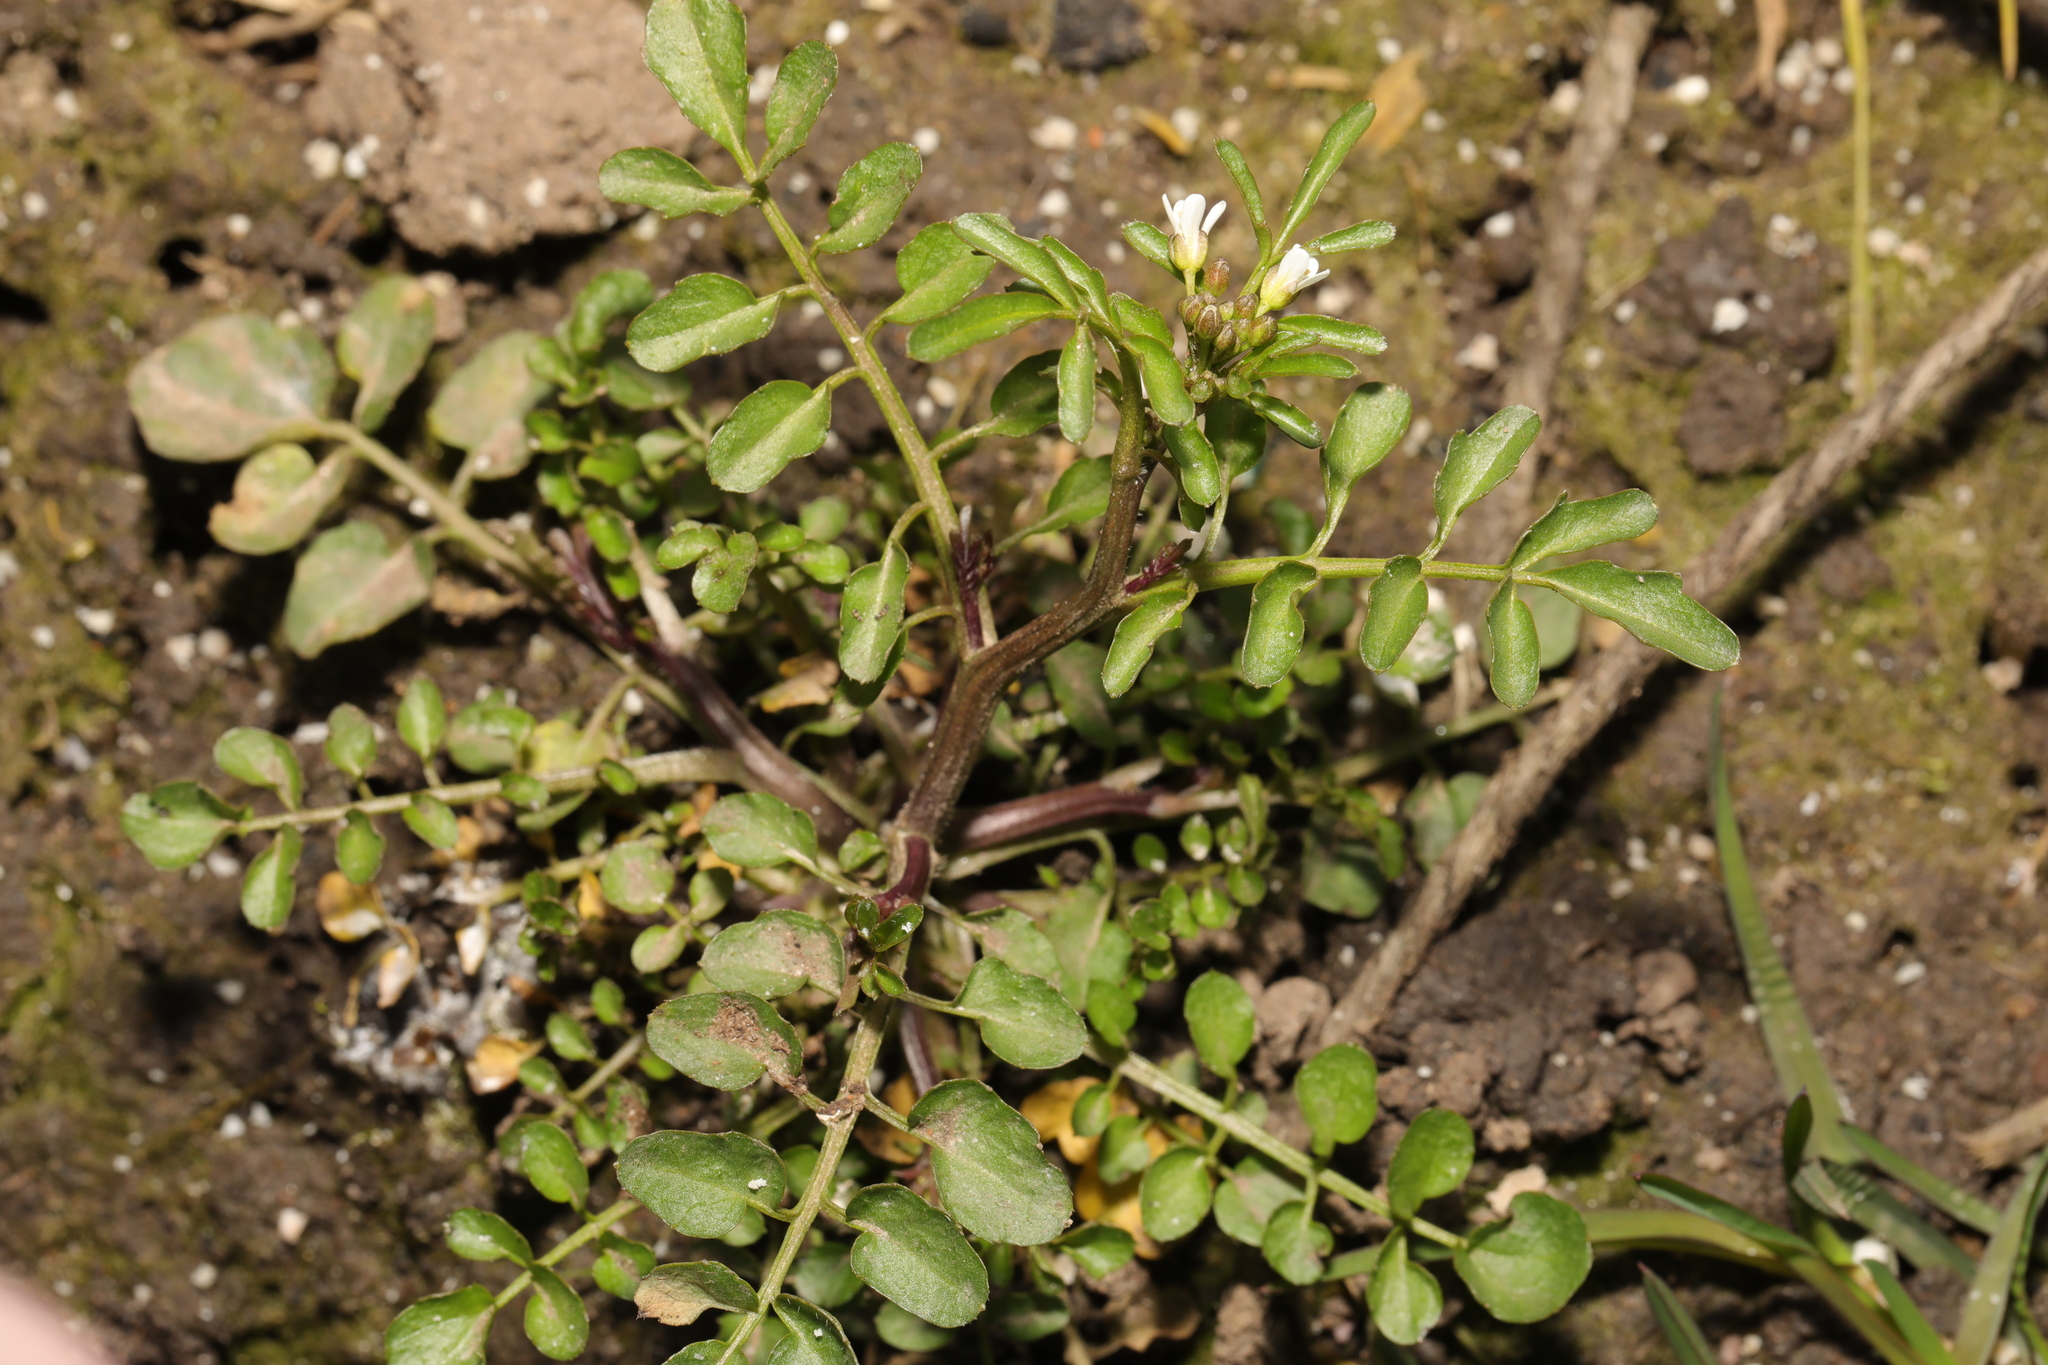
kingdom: Plantae
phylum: Tracheophyta
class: Magnoliopsida
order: Brassicales
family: Brassicaceae
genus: Cardamine
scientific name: Cardamine flexuosa
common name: Woodland bittercress
